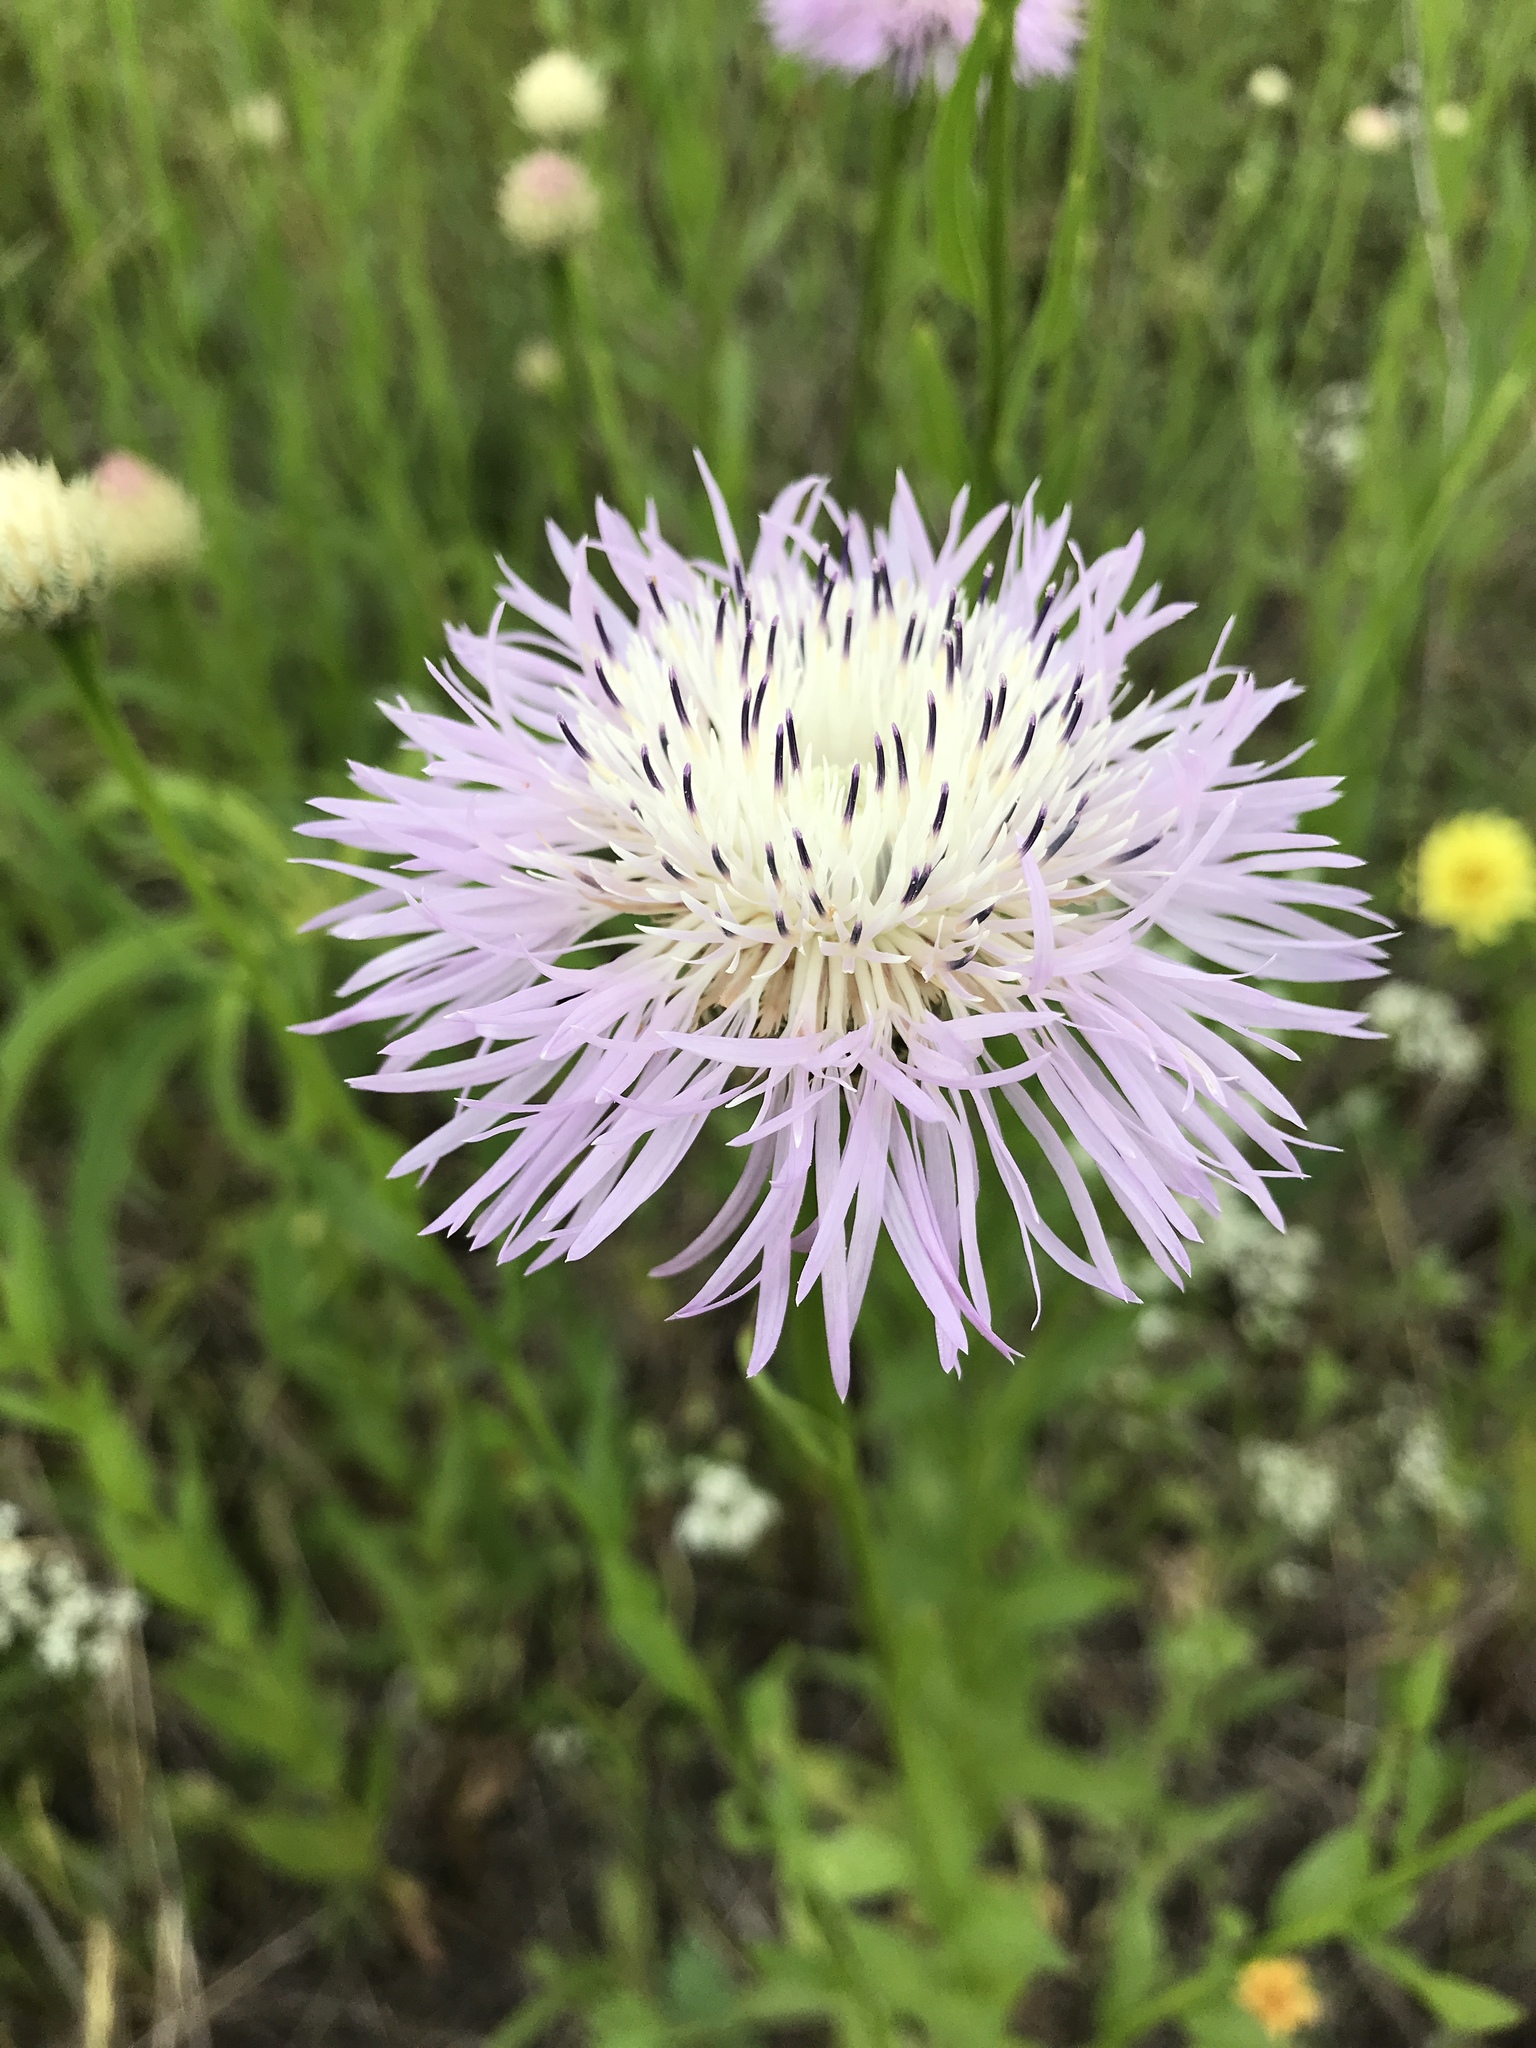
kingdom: Plantae
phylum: Tracheophyta
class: Magnoliopsida
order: Asterales
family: Asteraceae
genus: Plectocephalus
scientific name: Plectocephalus americanus
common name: American basket-flower
